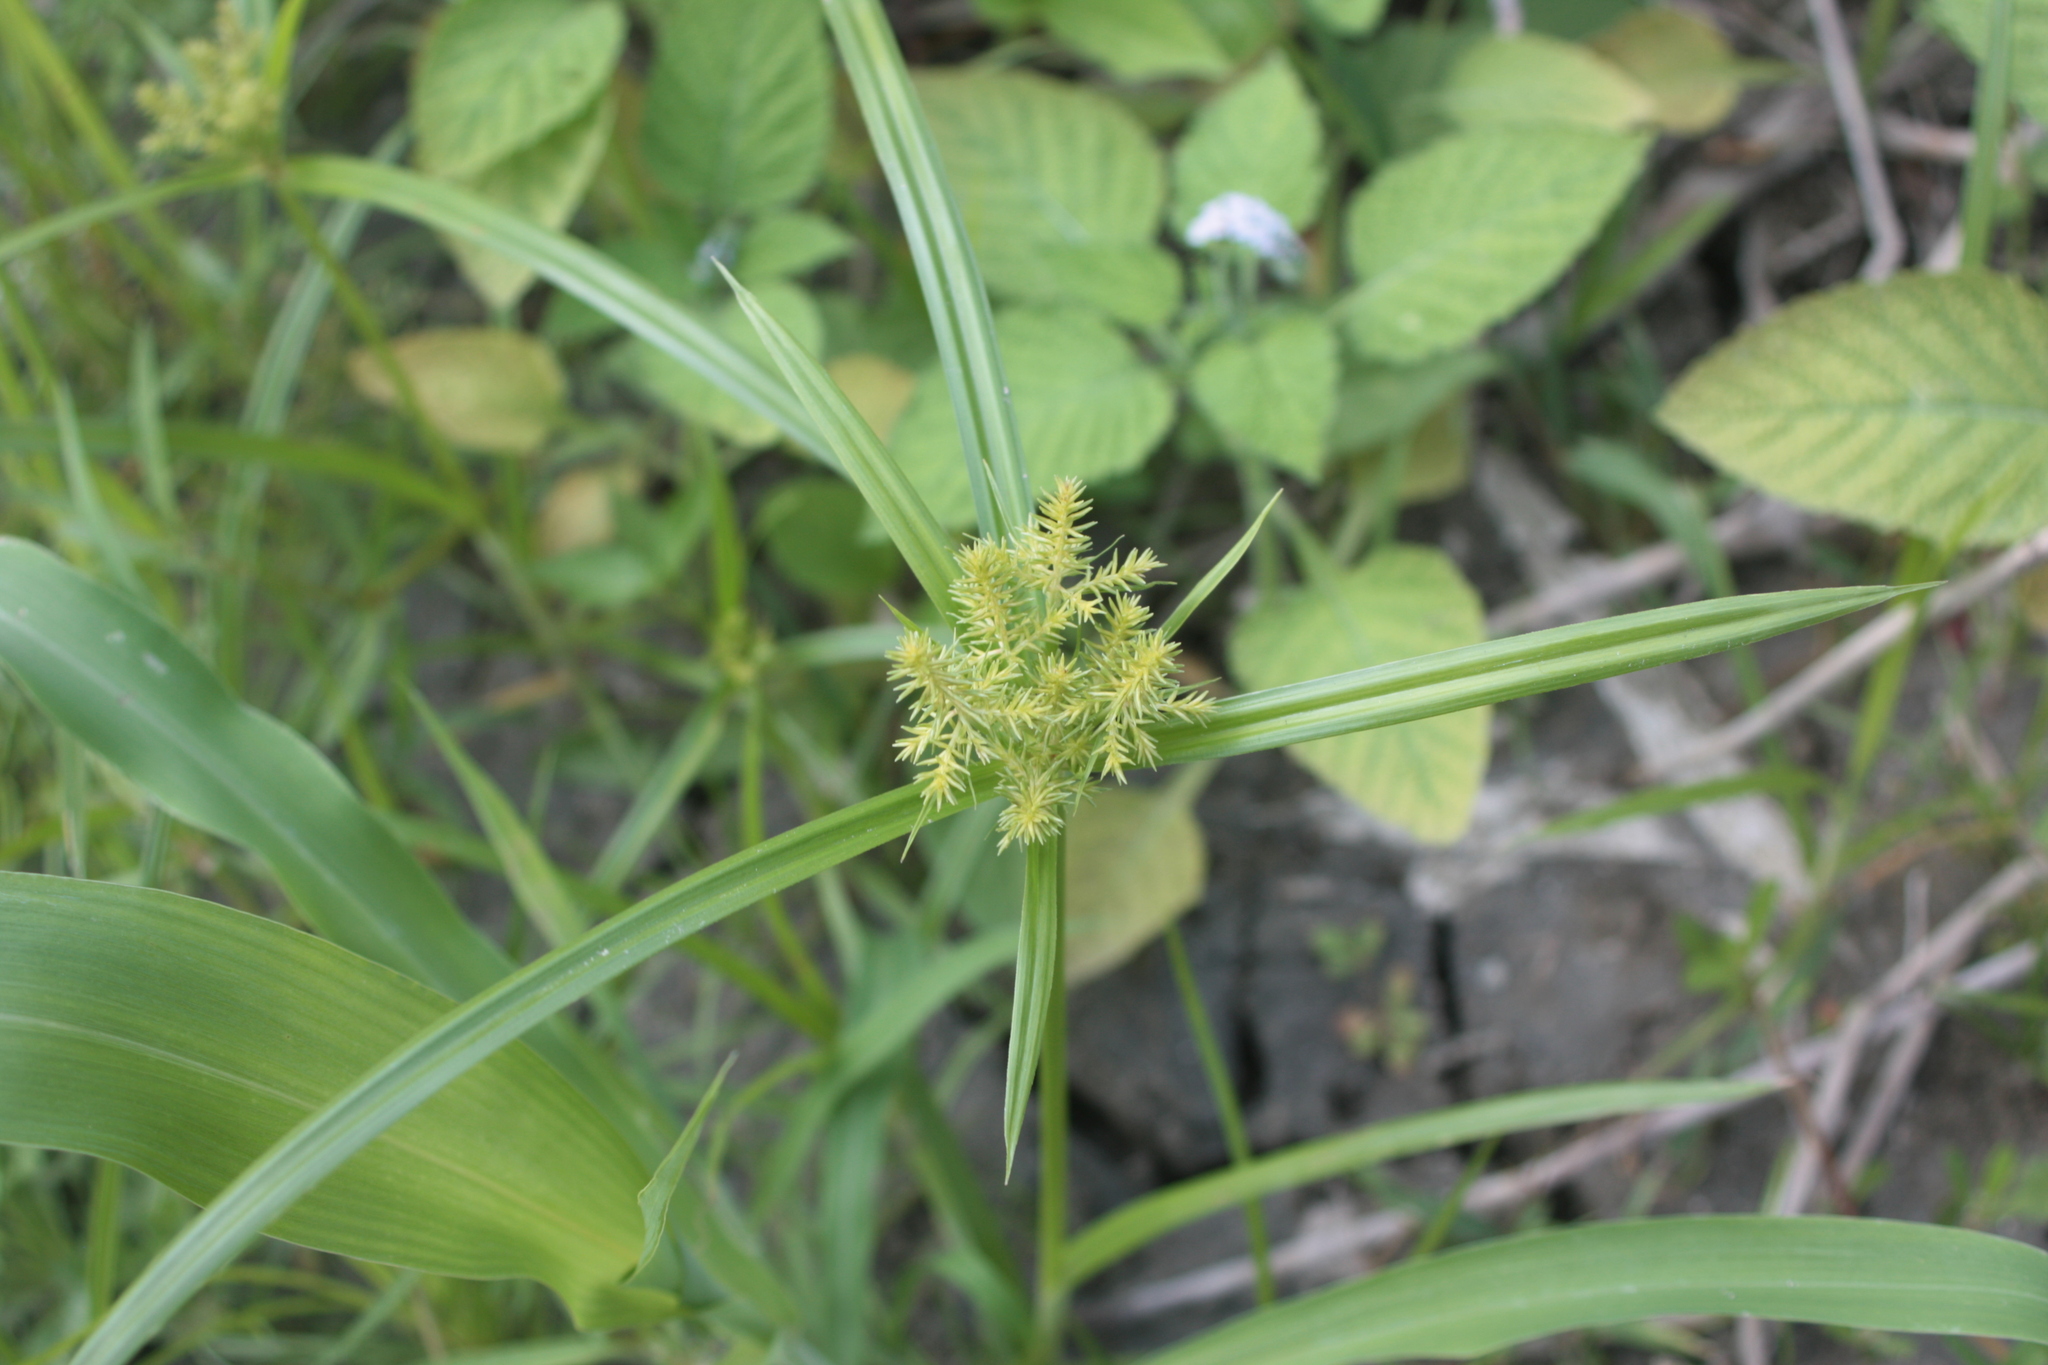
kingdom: Plantae
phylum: Tracheophyta
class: Liliopsida
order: Poales
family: Cyperaceae
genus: Cyperus
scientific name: Cyperus odoratus
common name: Fragrant flatsedge
